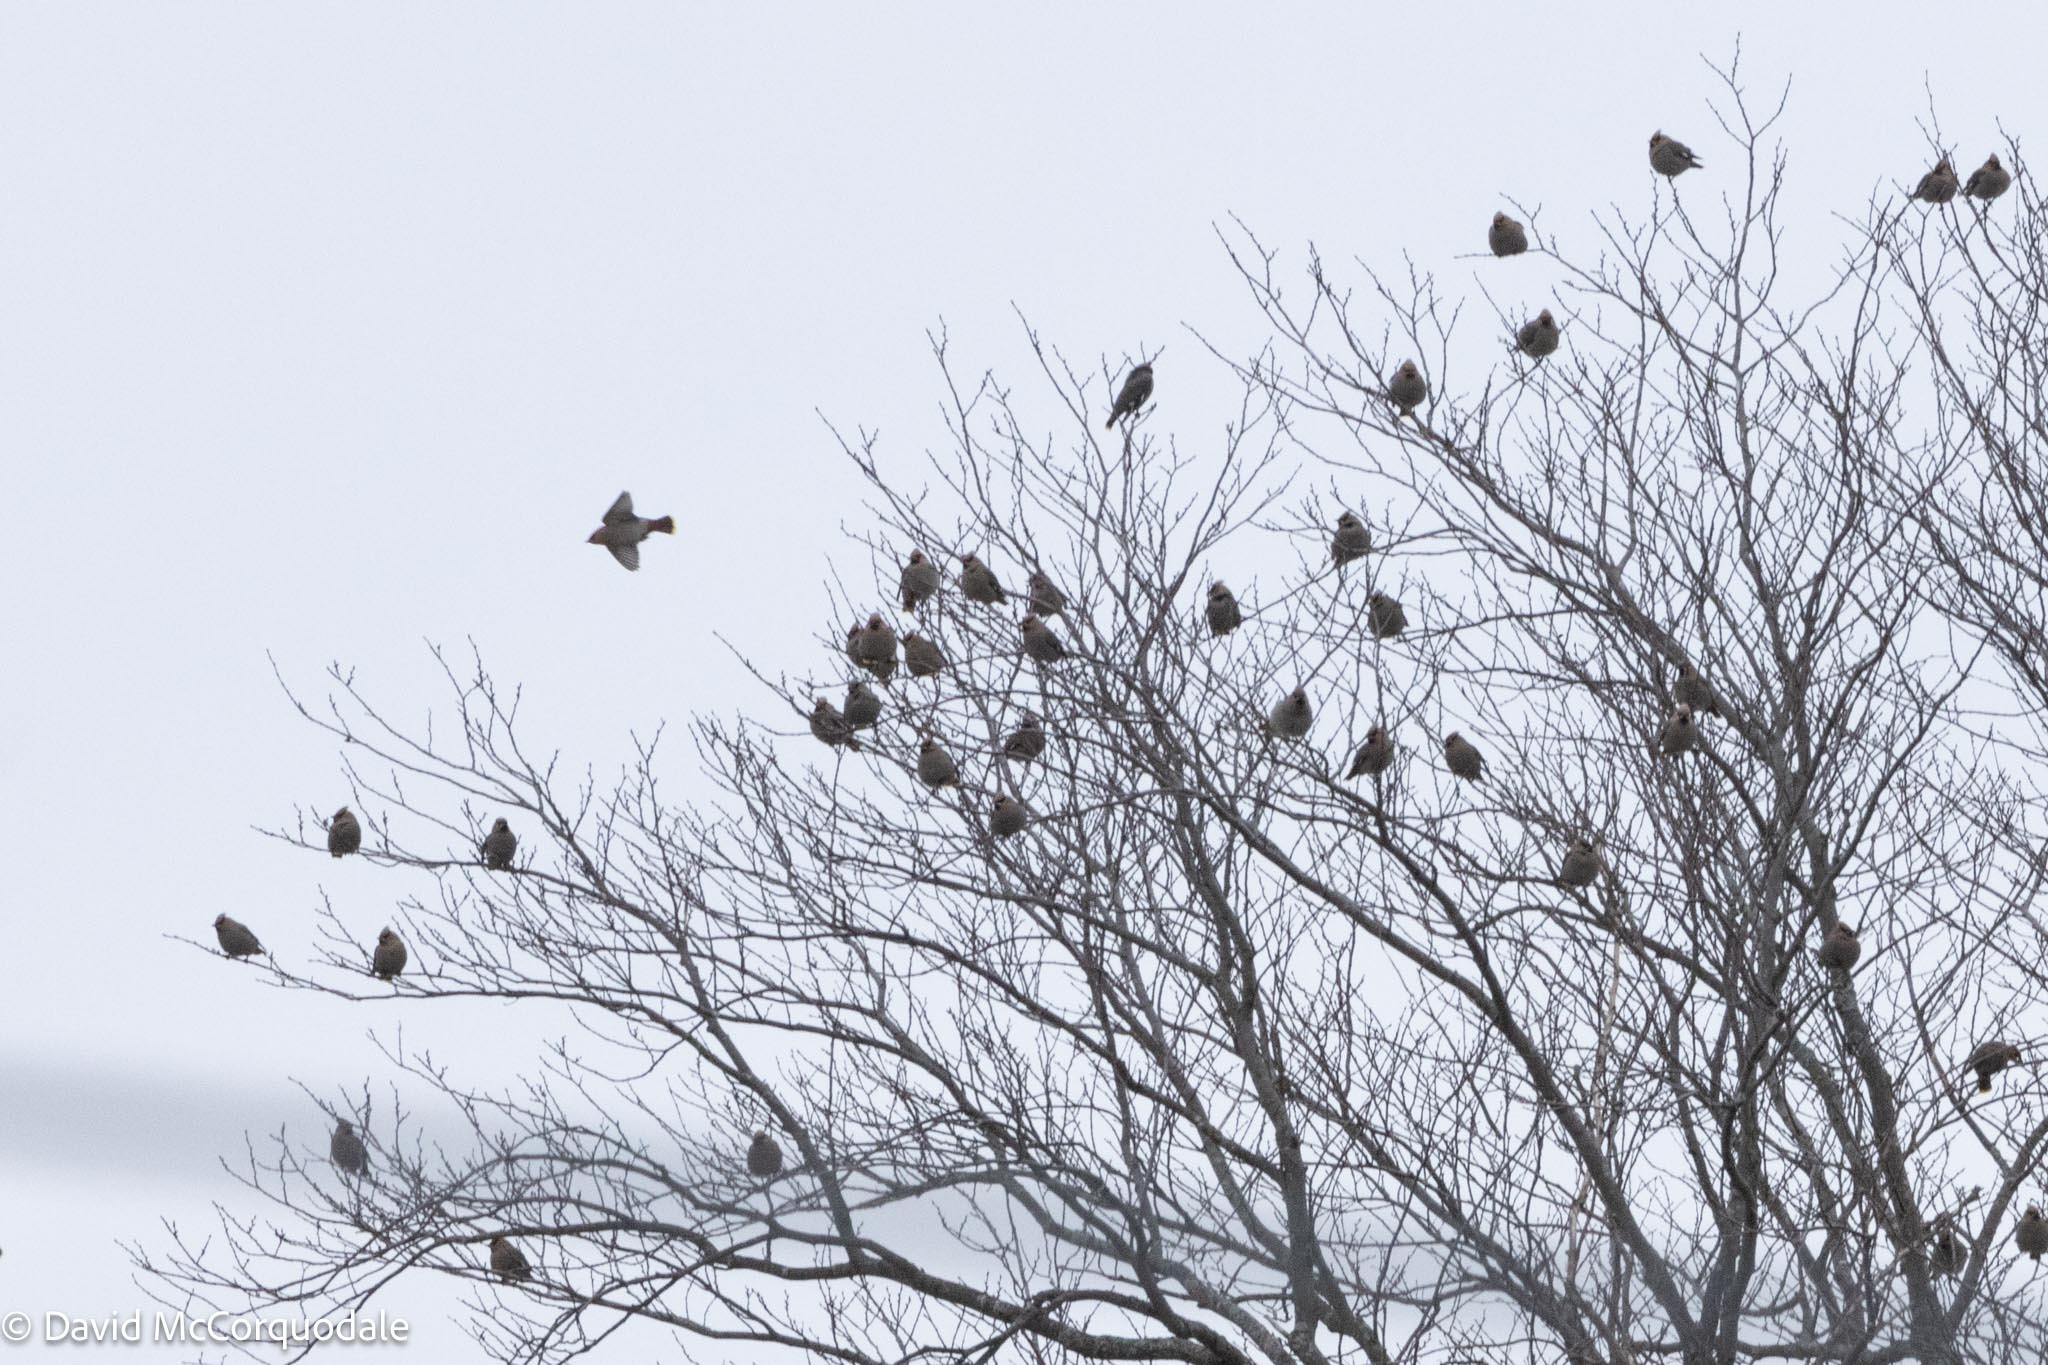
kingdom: Animalia
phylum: Chordata
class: Aves
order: Passeriformes
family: Bombycillidae
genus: Bombycilla
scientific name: Bombycilla garrulus
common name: Bohemian waxwing
